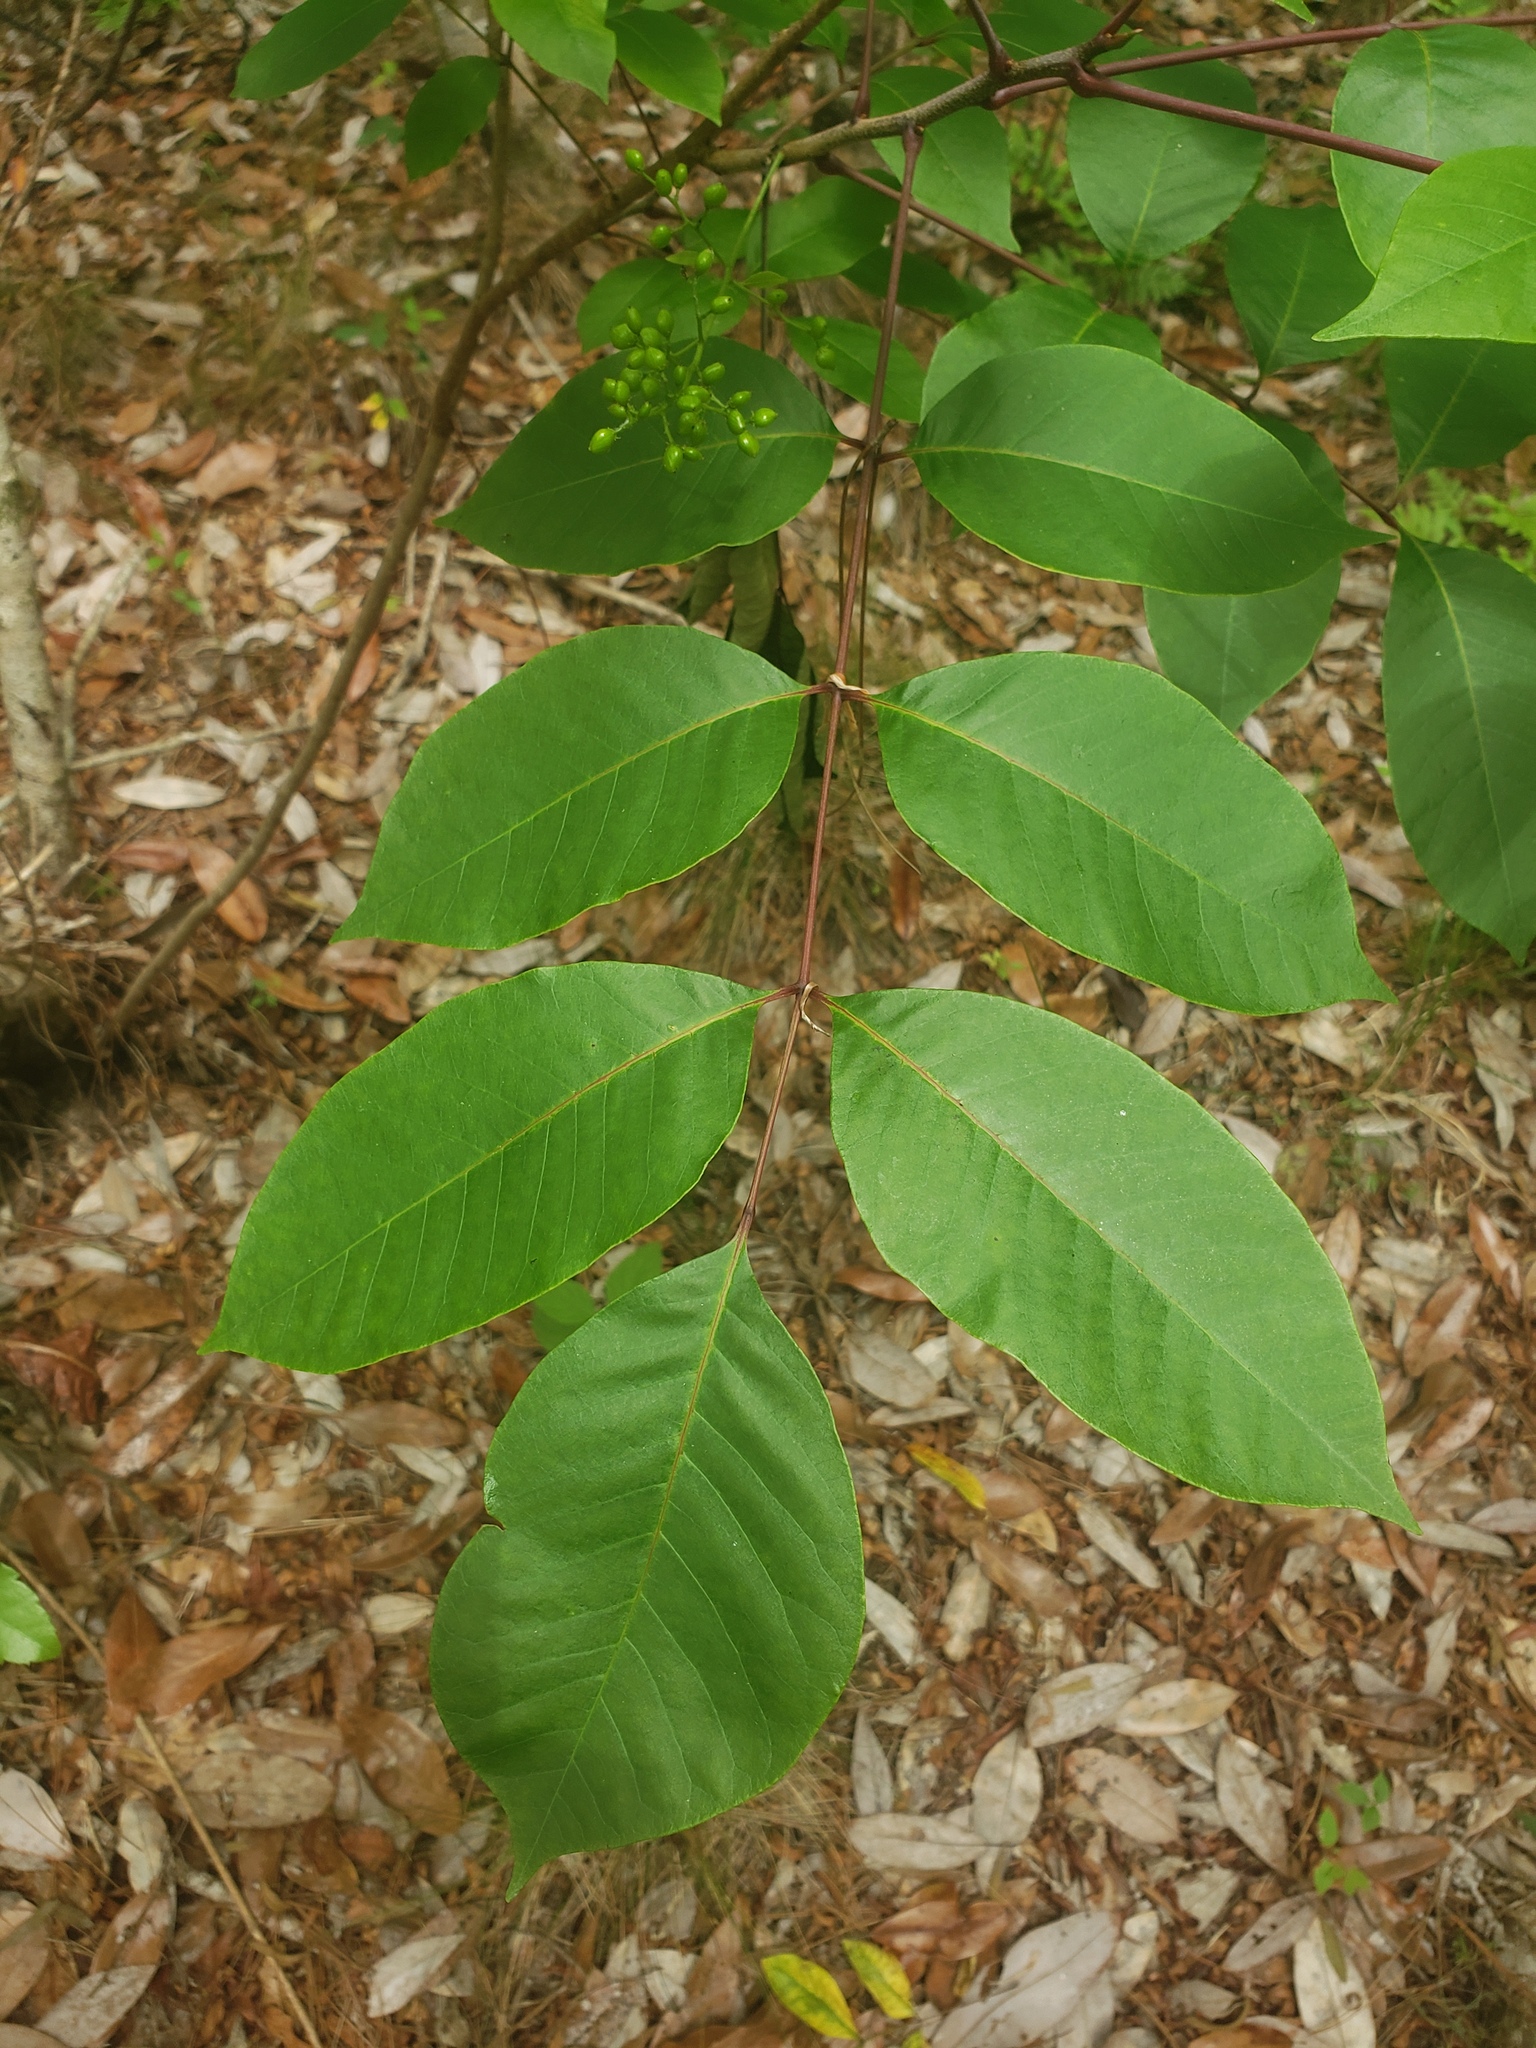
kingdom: Plantae
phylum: Tracheophyta
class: Magnoliopsida
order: Sapindales
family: Anacardiaceae
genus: Toxicodendron
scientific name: Toxicodendron vernix
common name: Poison sumac
